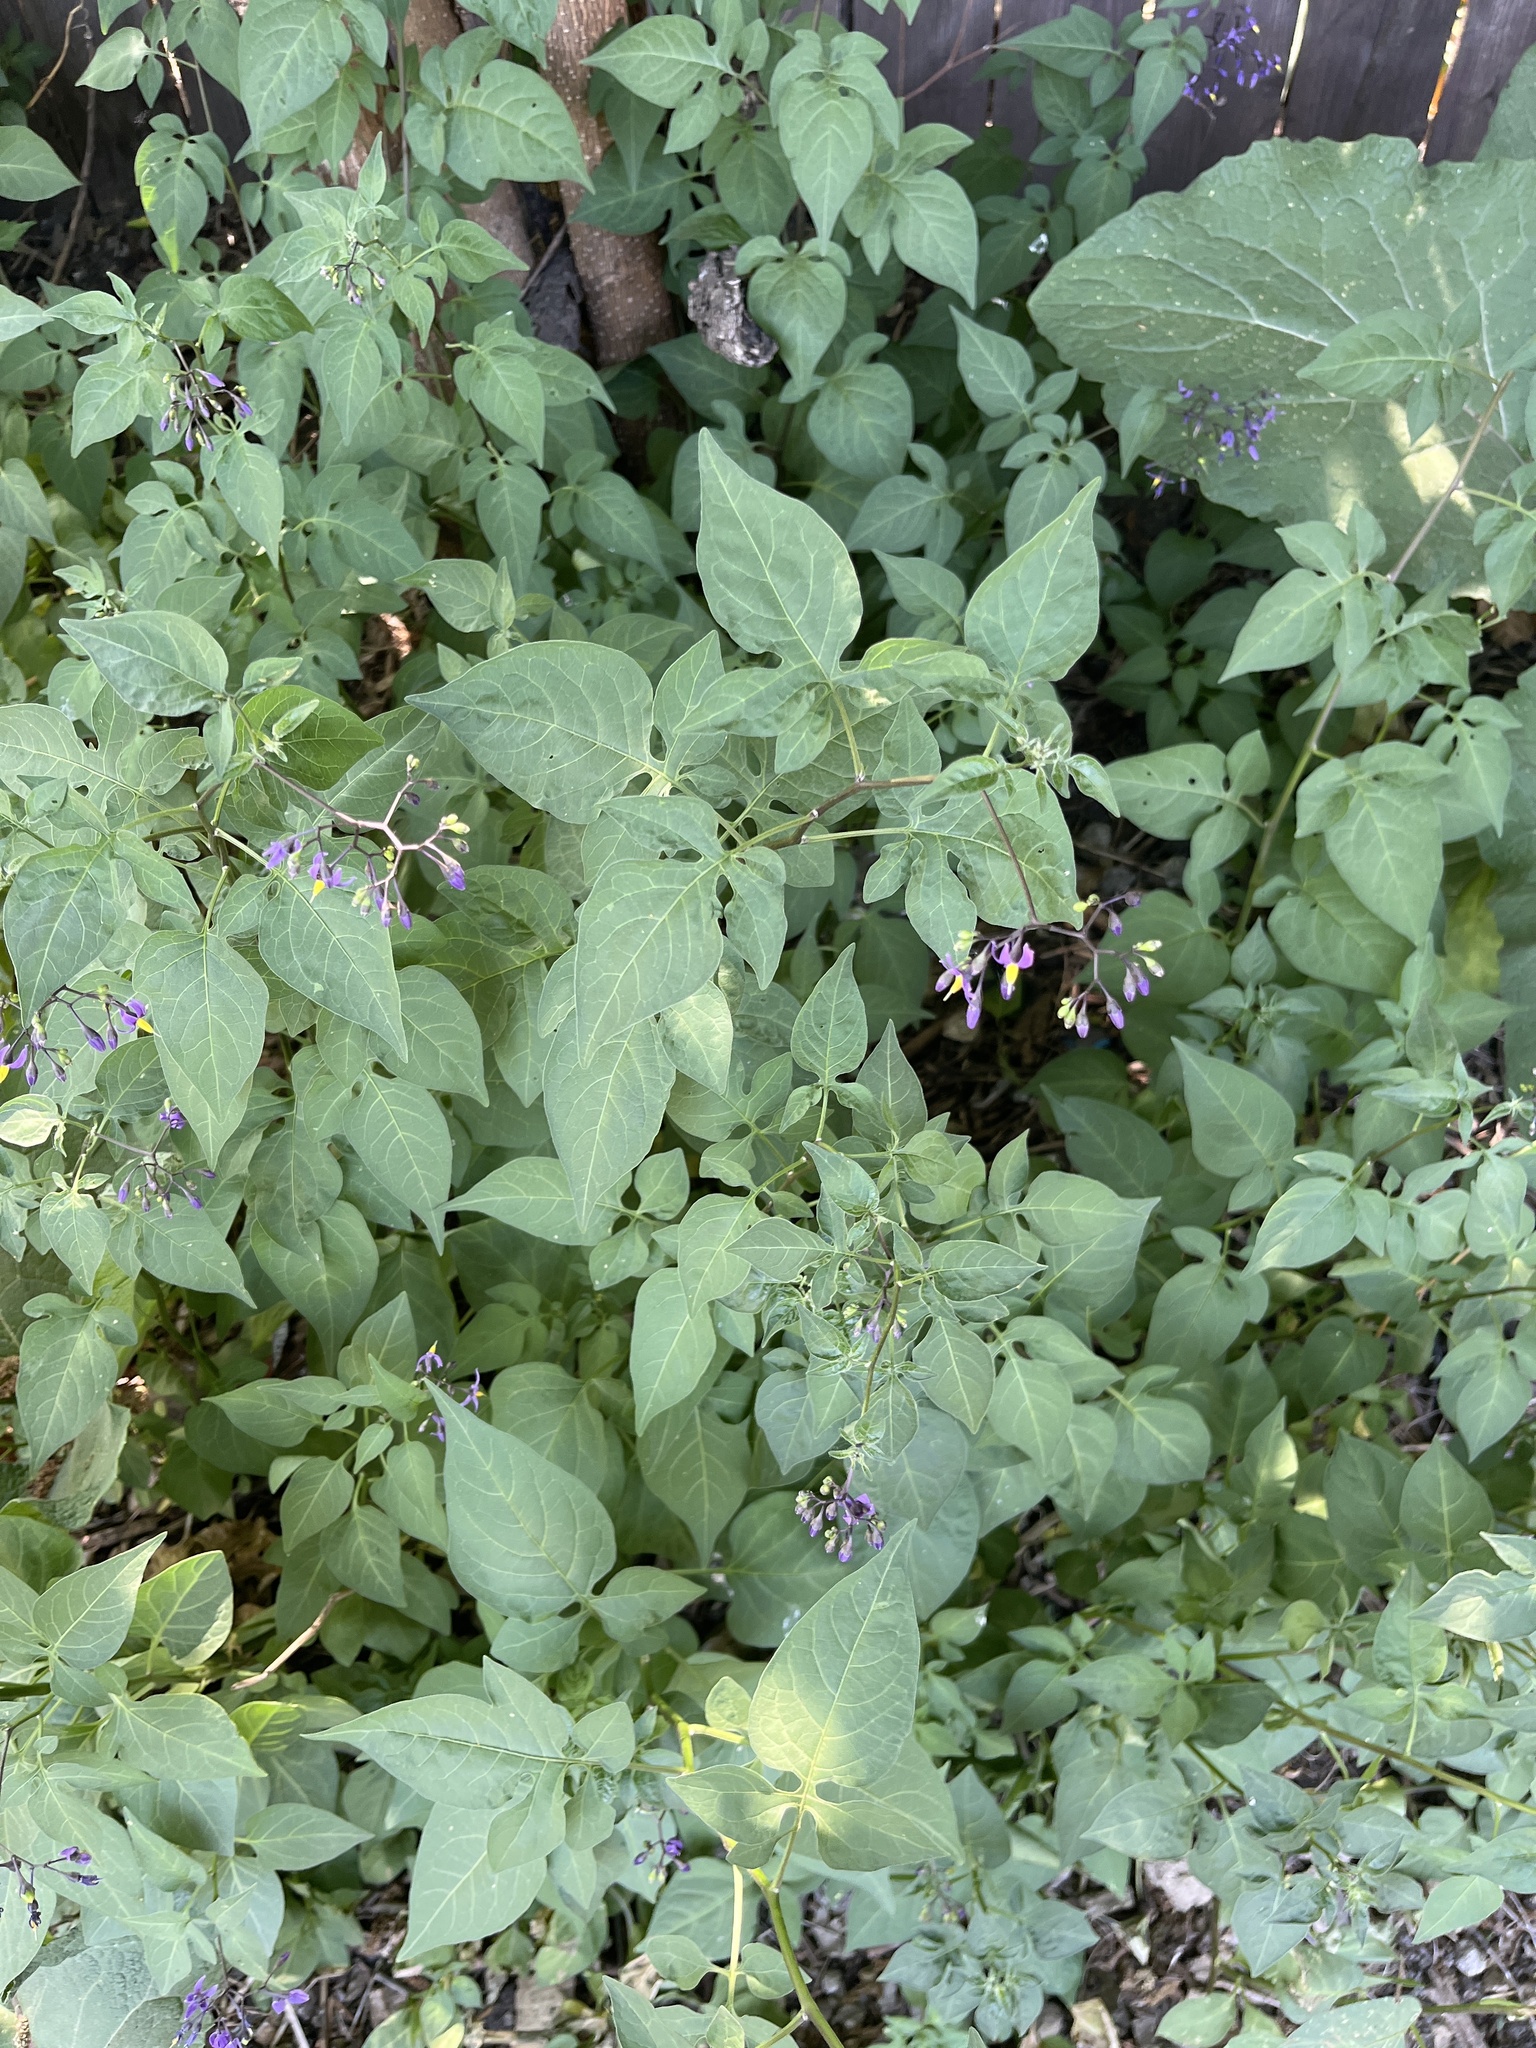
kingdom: Plantae
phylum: Tracheophyta
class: Magnoliopsida
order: Solanales
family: Solanaceae
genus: Solanum
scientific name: Solanum dulcamara
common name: Climbing nightshade
